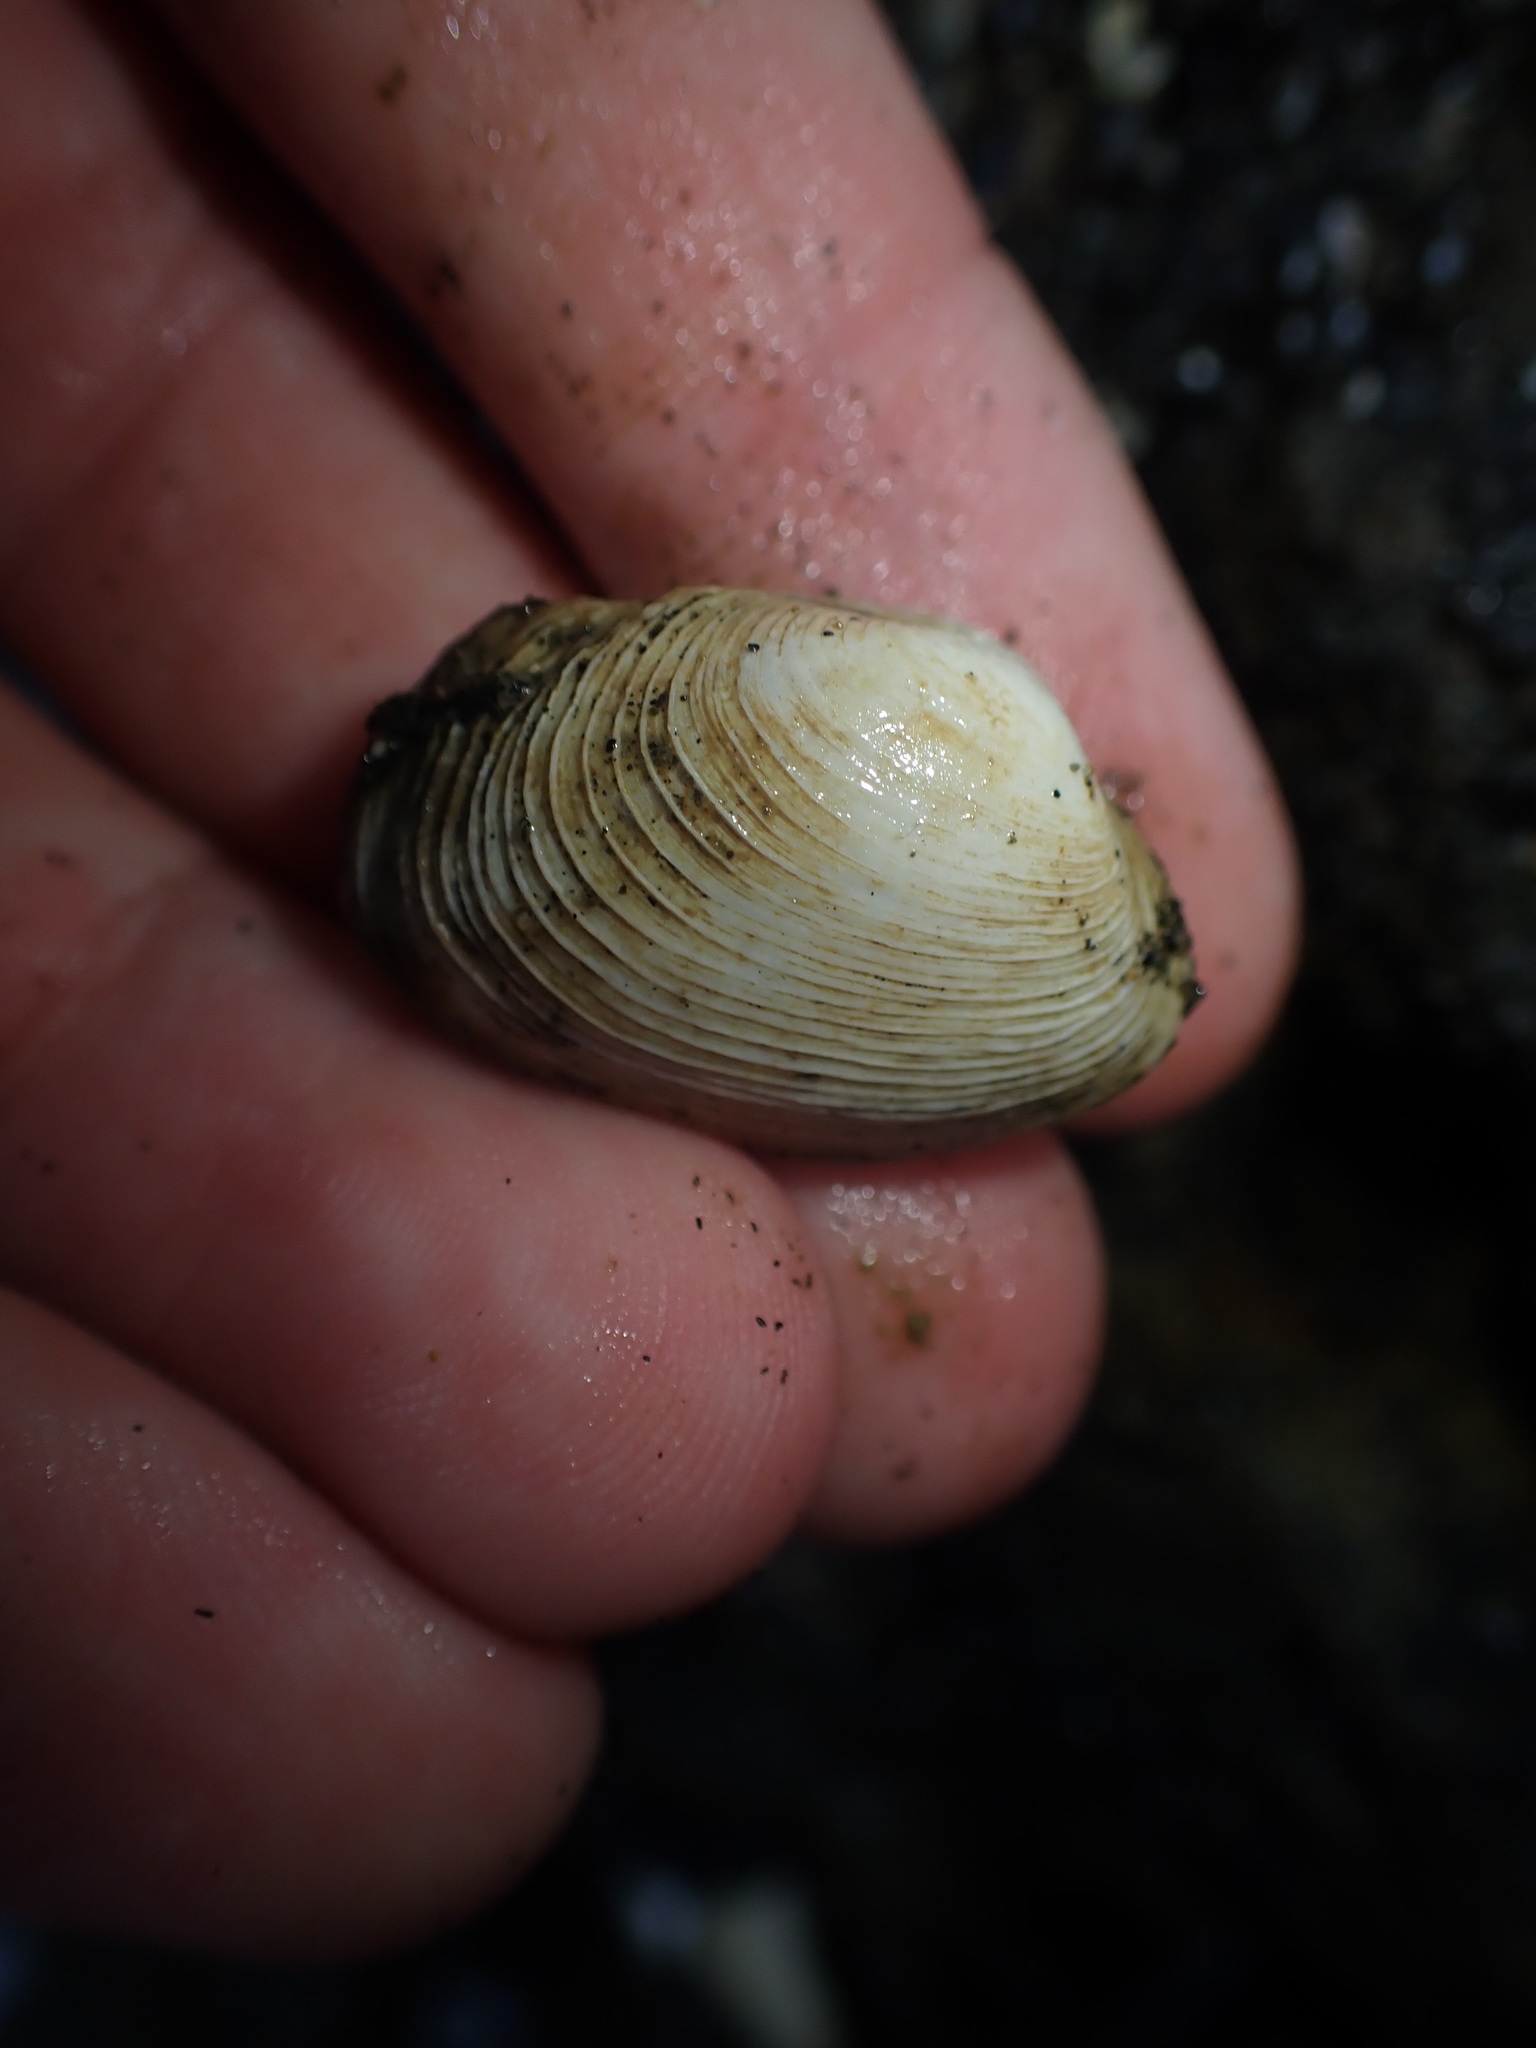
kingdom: Animalia
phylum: Mollusca
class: Bivalvia
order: Venerida
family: Veneridae
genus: Irus
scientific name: Irus reflexus
